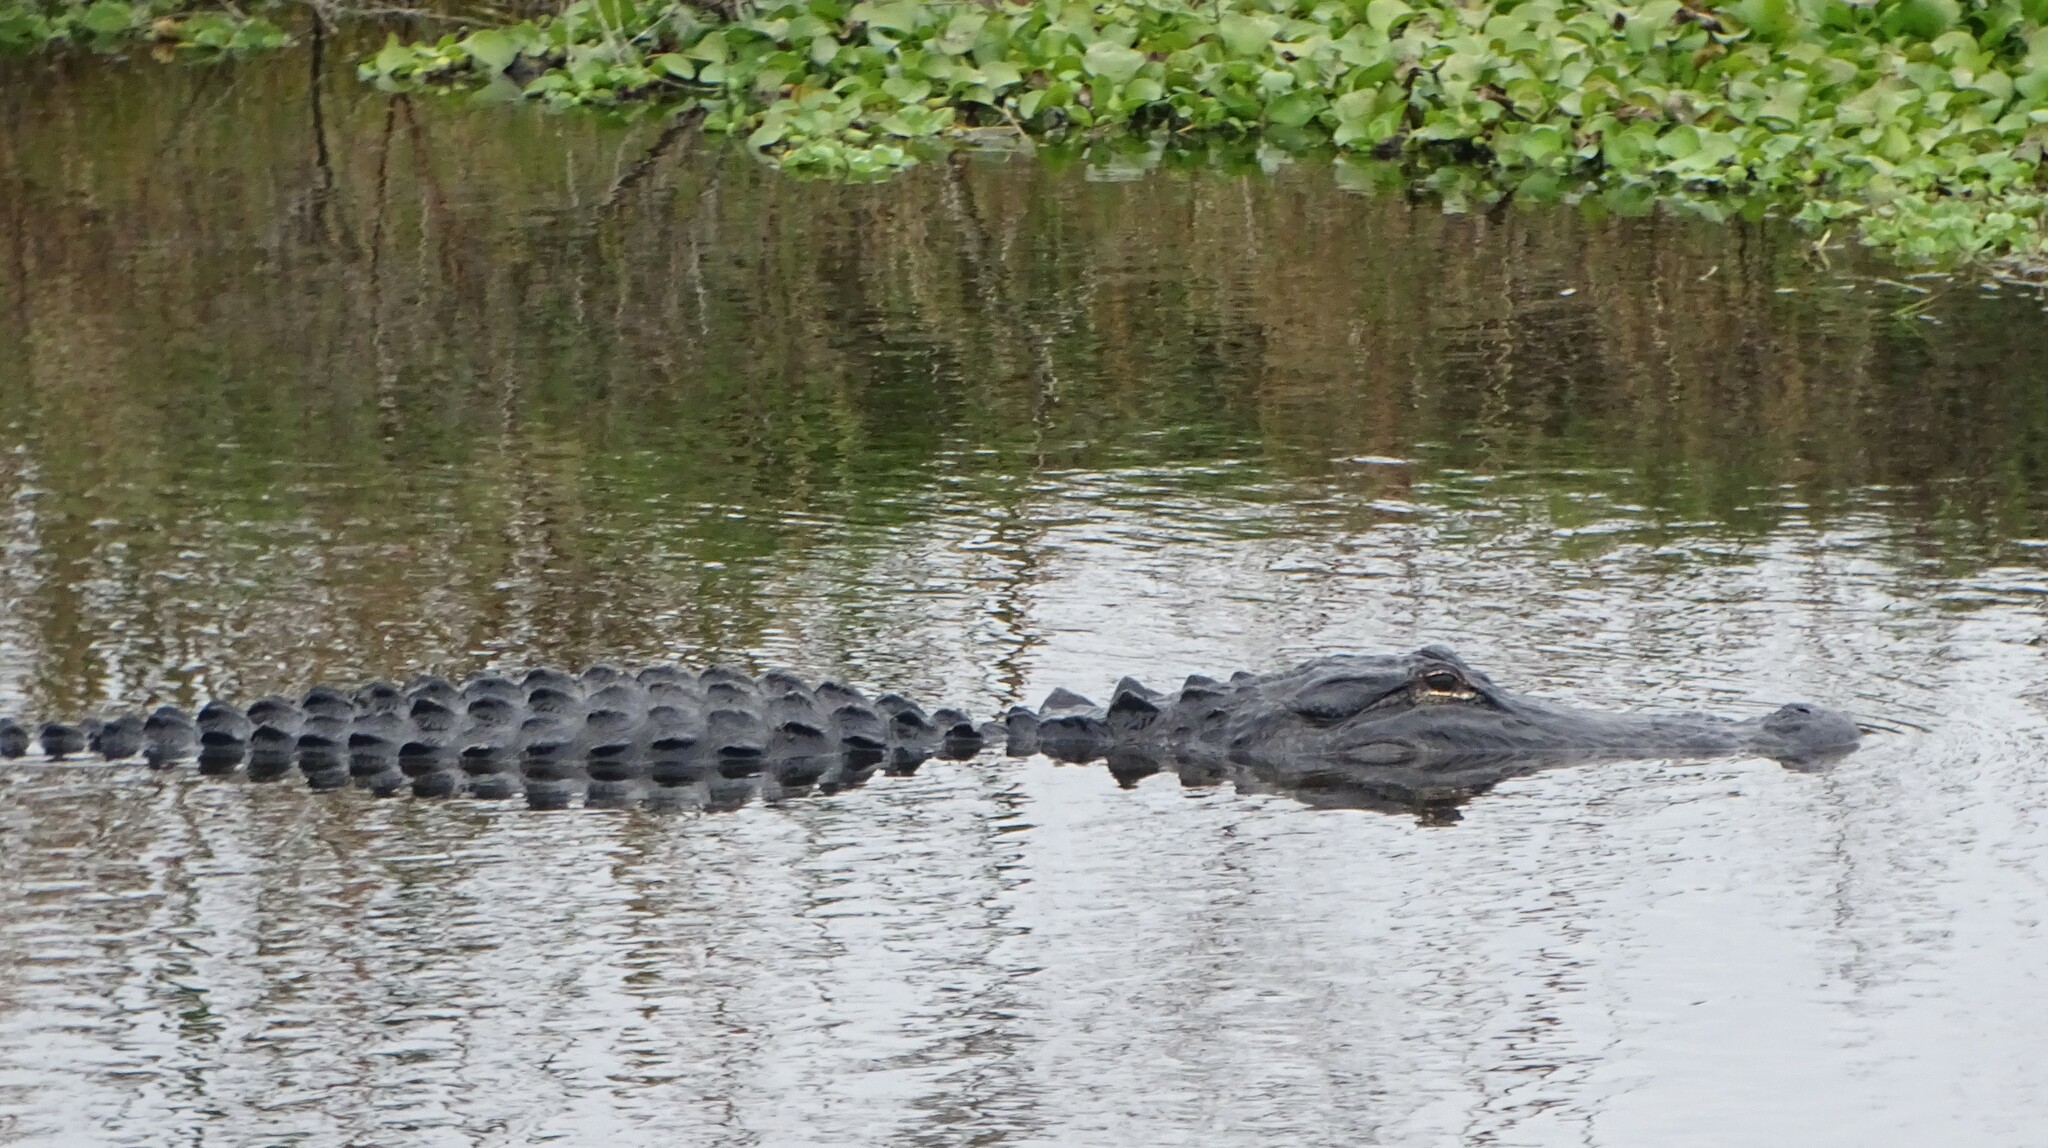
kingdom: Animalia
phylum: Chordata
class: Crocodylia
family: Alligatoridae
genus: Alligator
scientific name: Alligator mississippiensis
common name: American alligator
